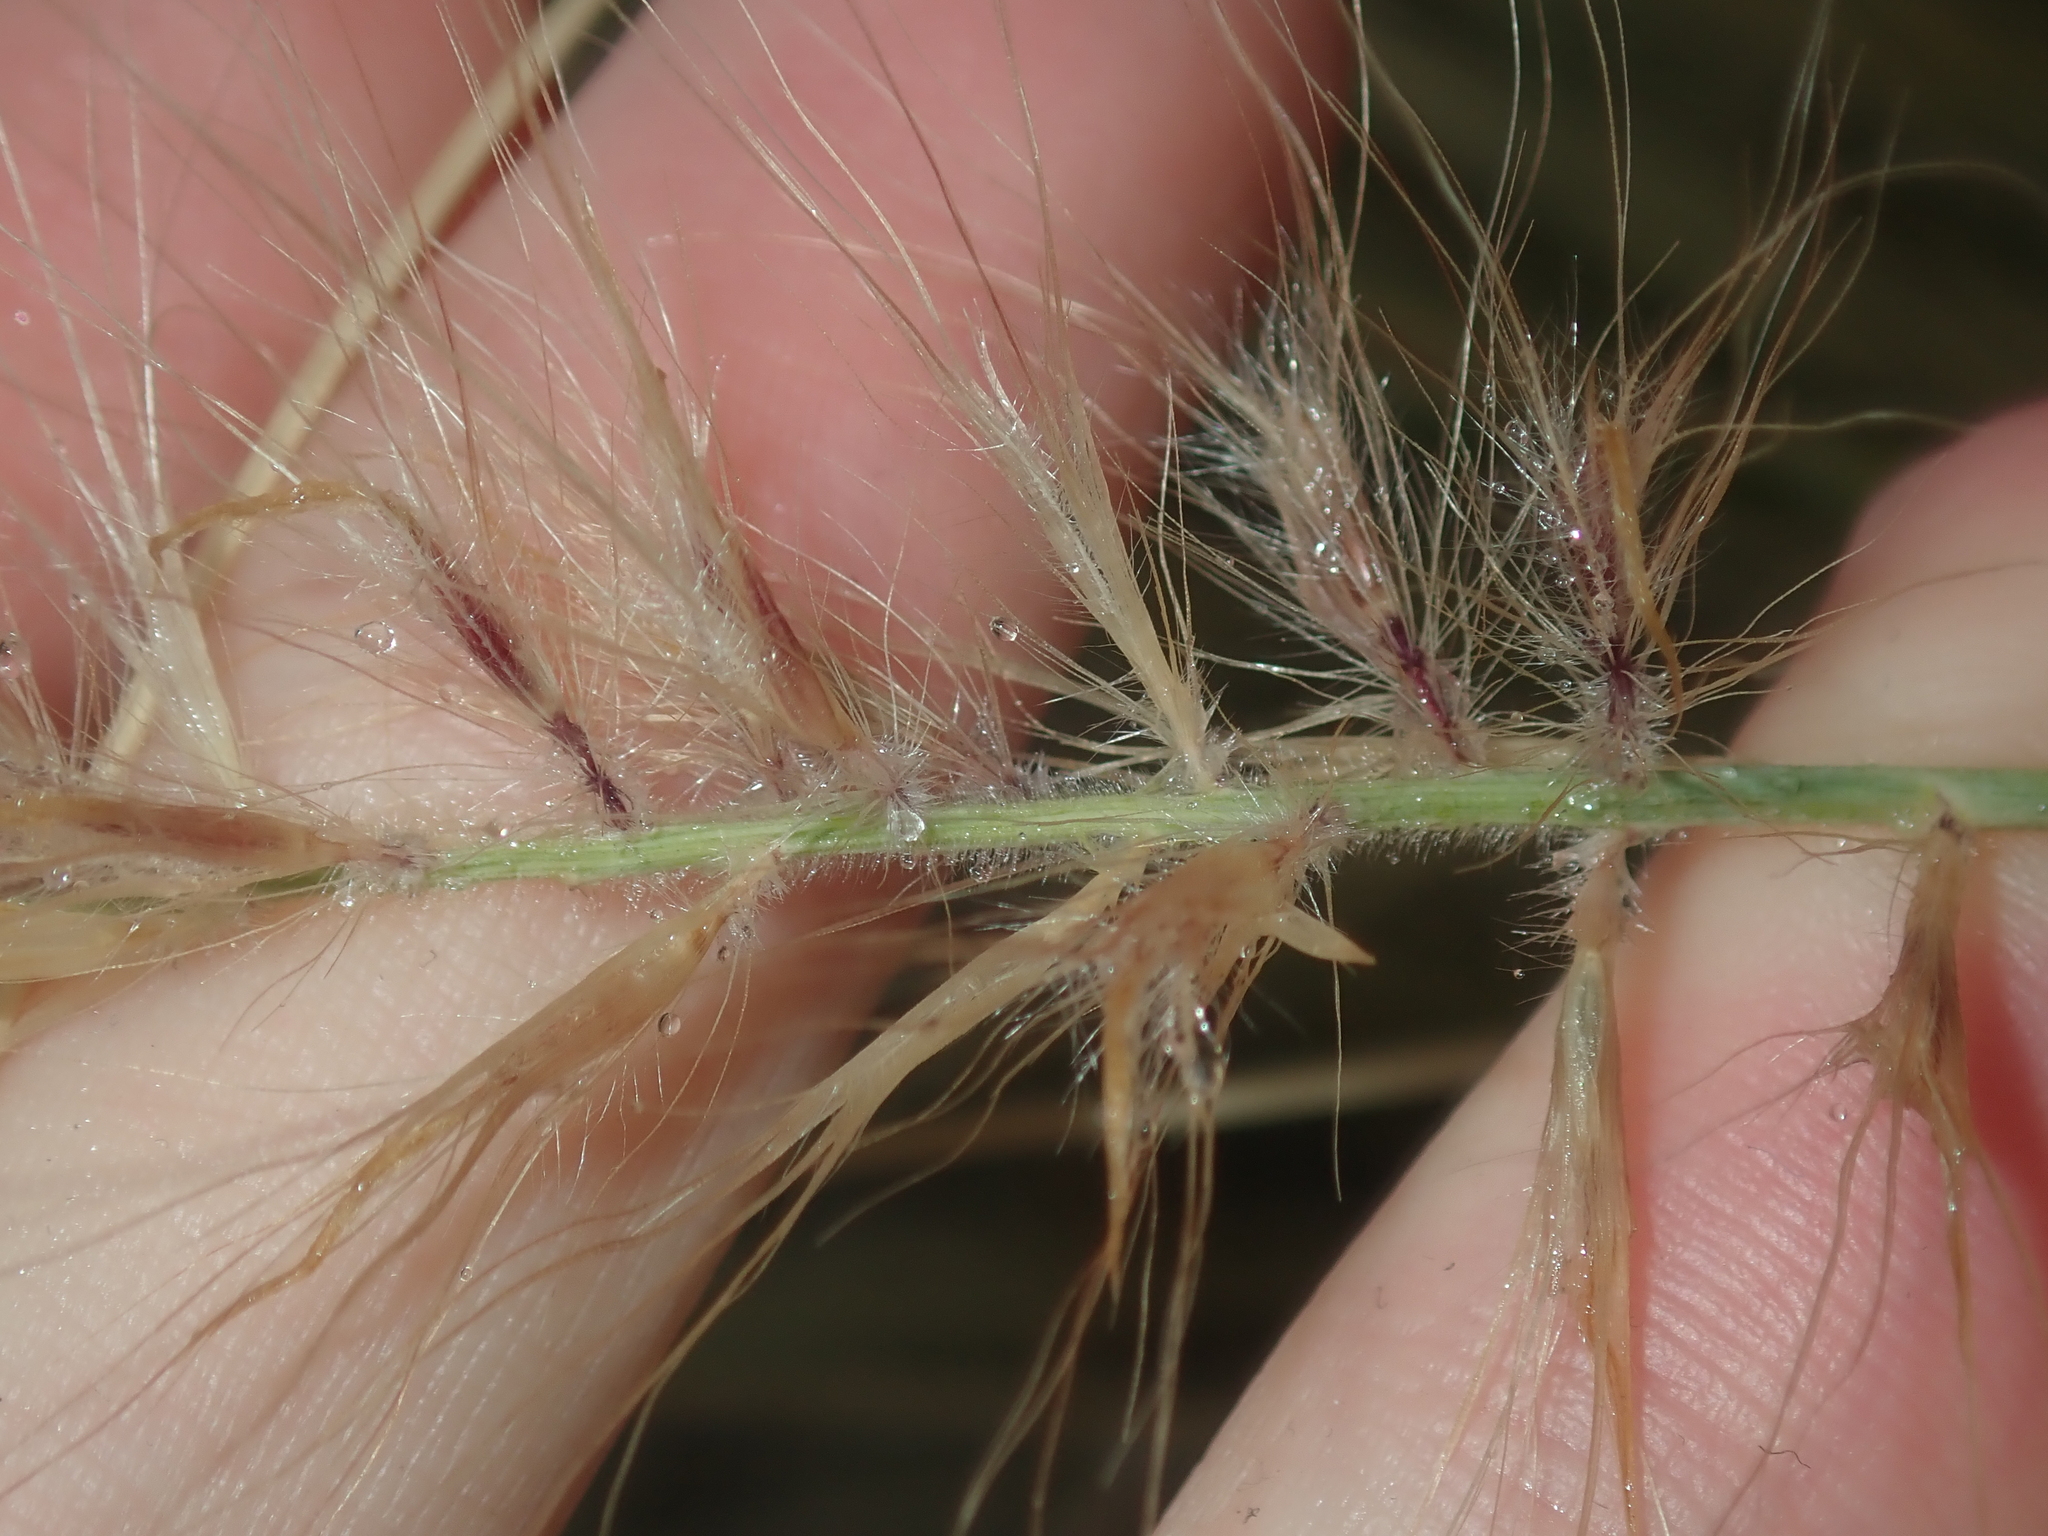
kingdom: Plantae
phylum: Tracheophyta
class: Liliopsida
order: Poales
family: Poaceae
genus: Cenchrus
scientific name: Cenchrus setaceus
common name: Crimson fountaingrass
